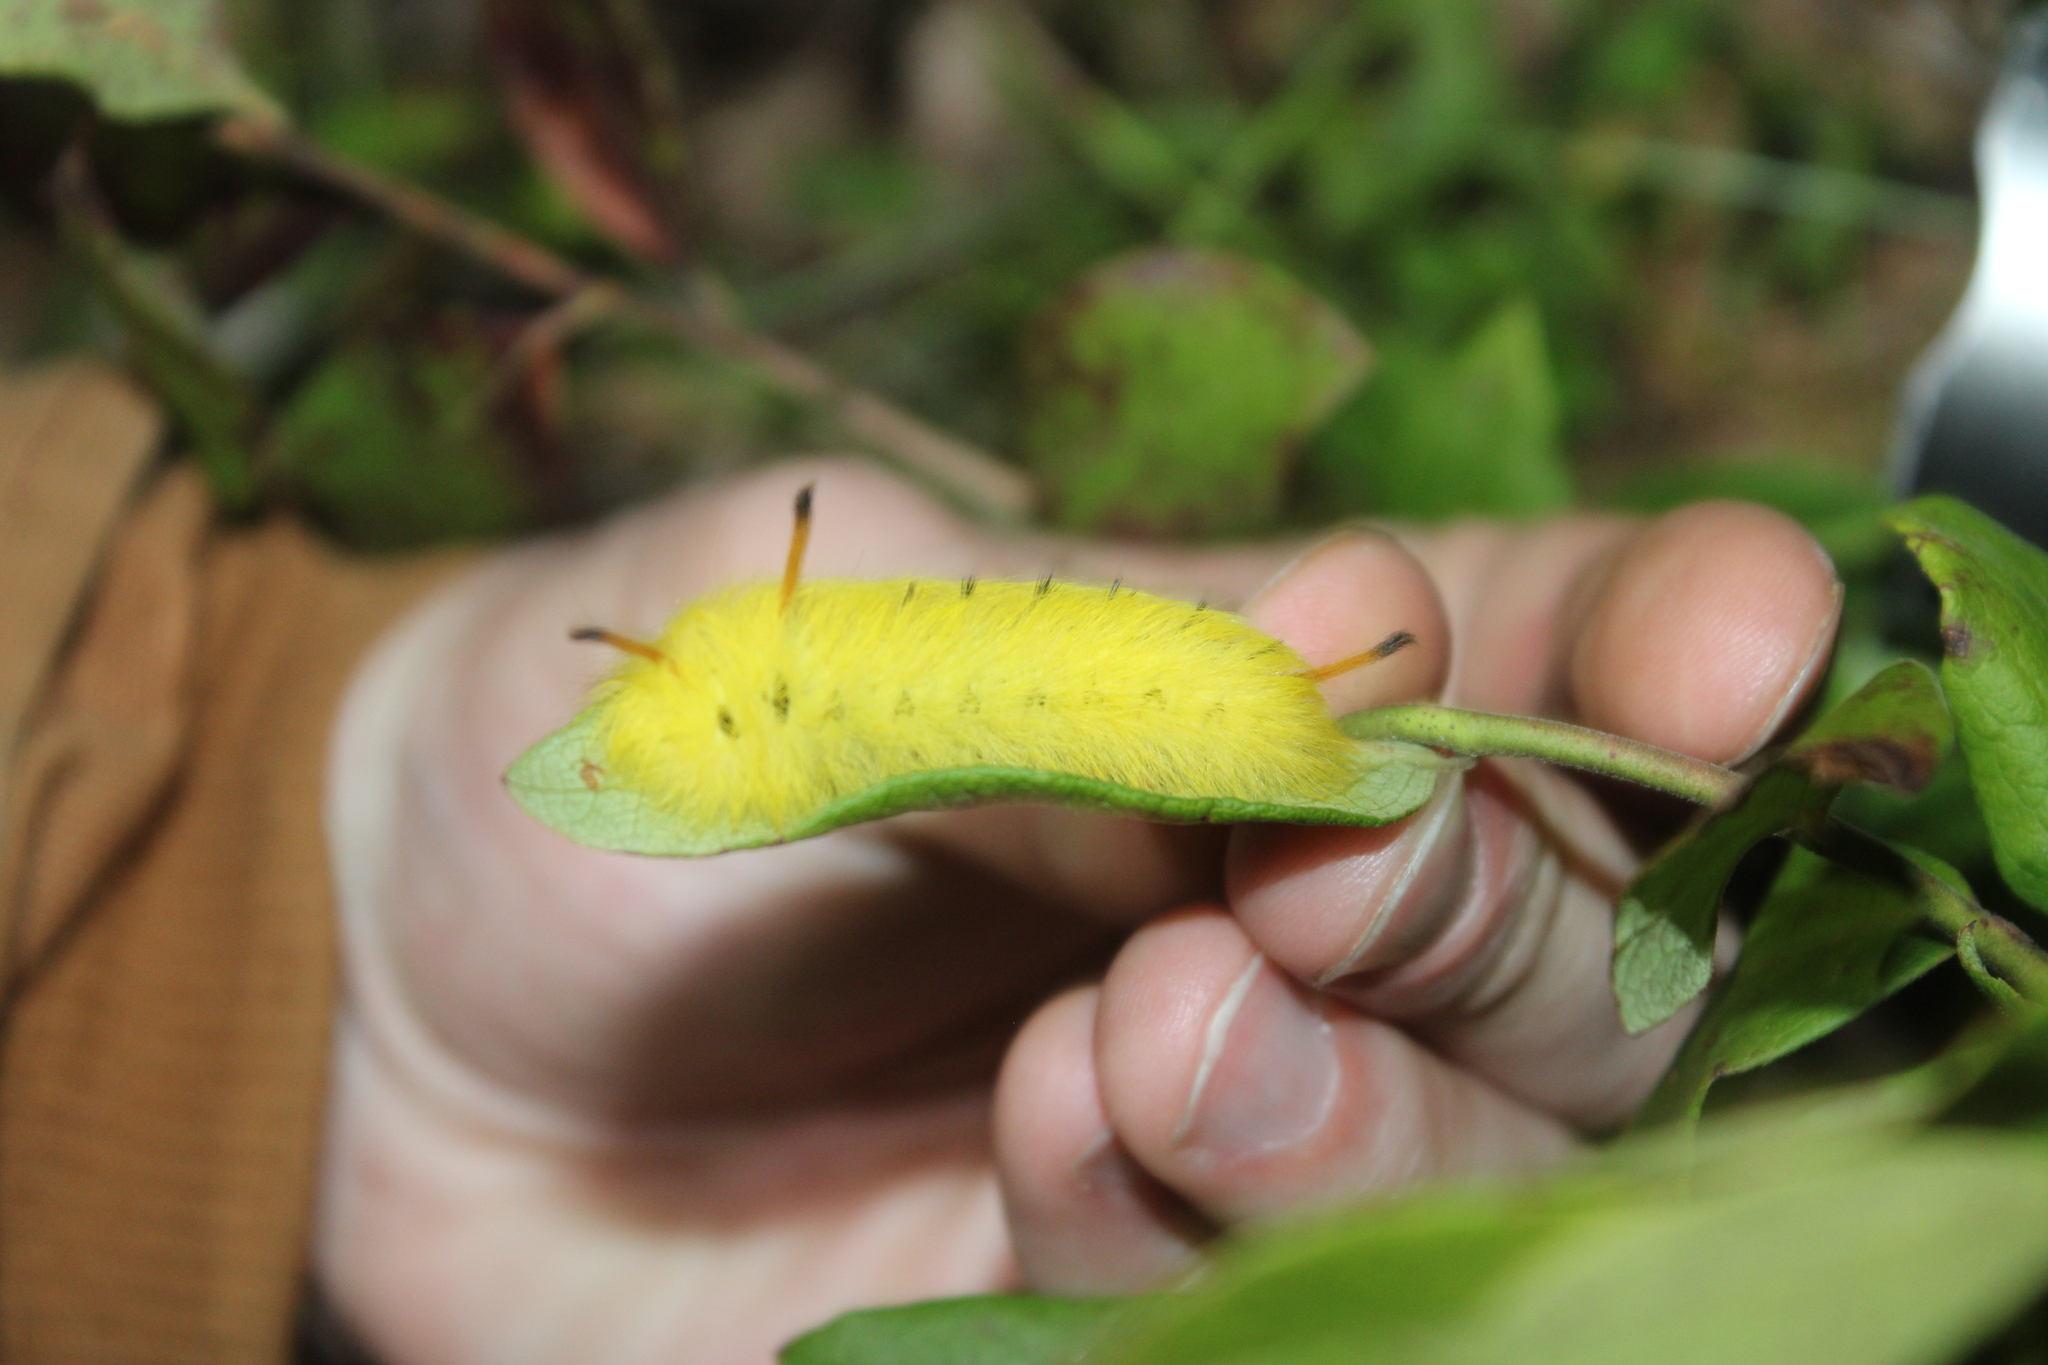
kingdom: Animalia
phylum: Arthropoda
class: Insecta
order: Lepidoptera
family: Apatelodidae
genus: Hygrochroa
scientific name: Hygrochroa Apatelodes torrefacta
